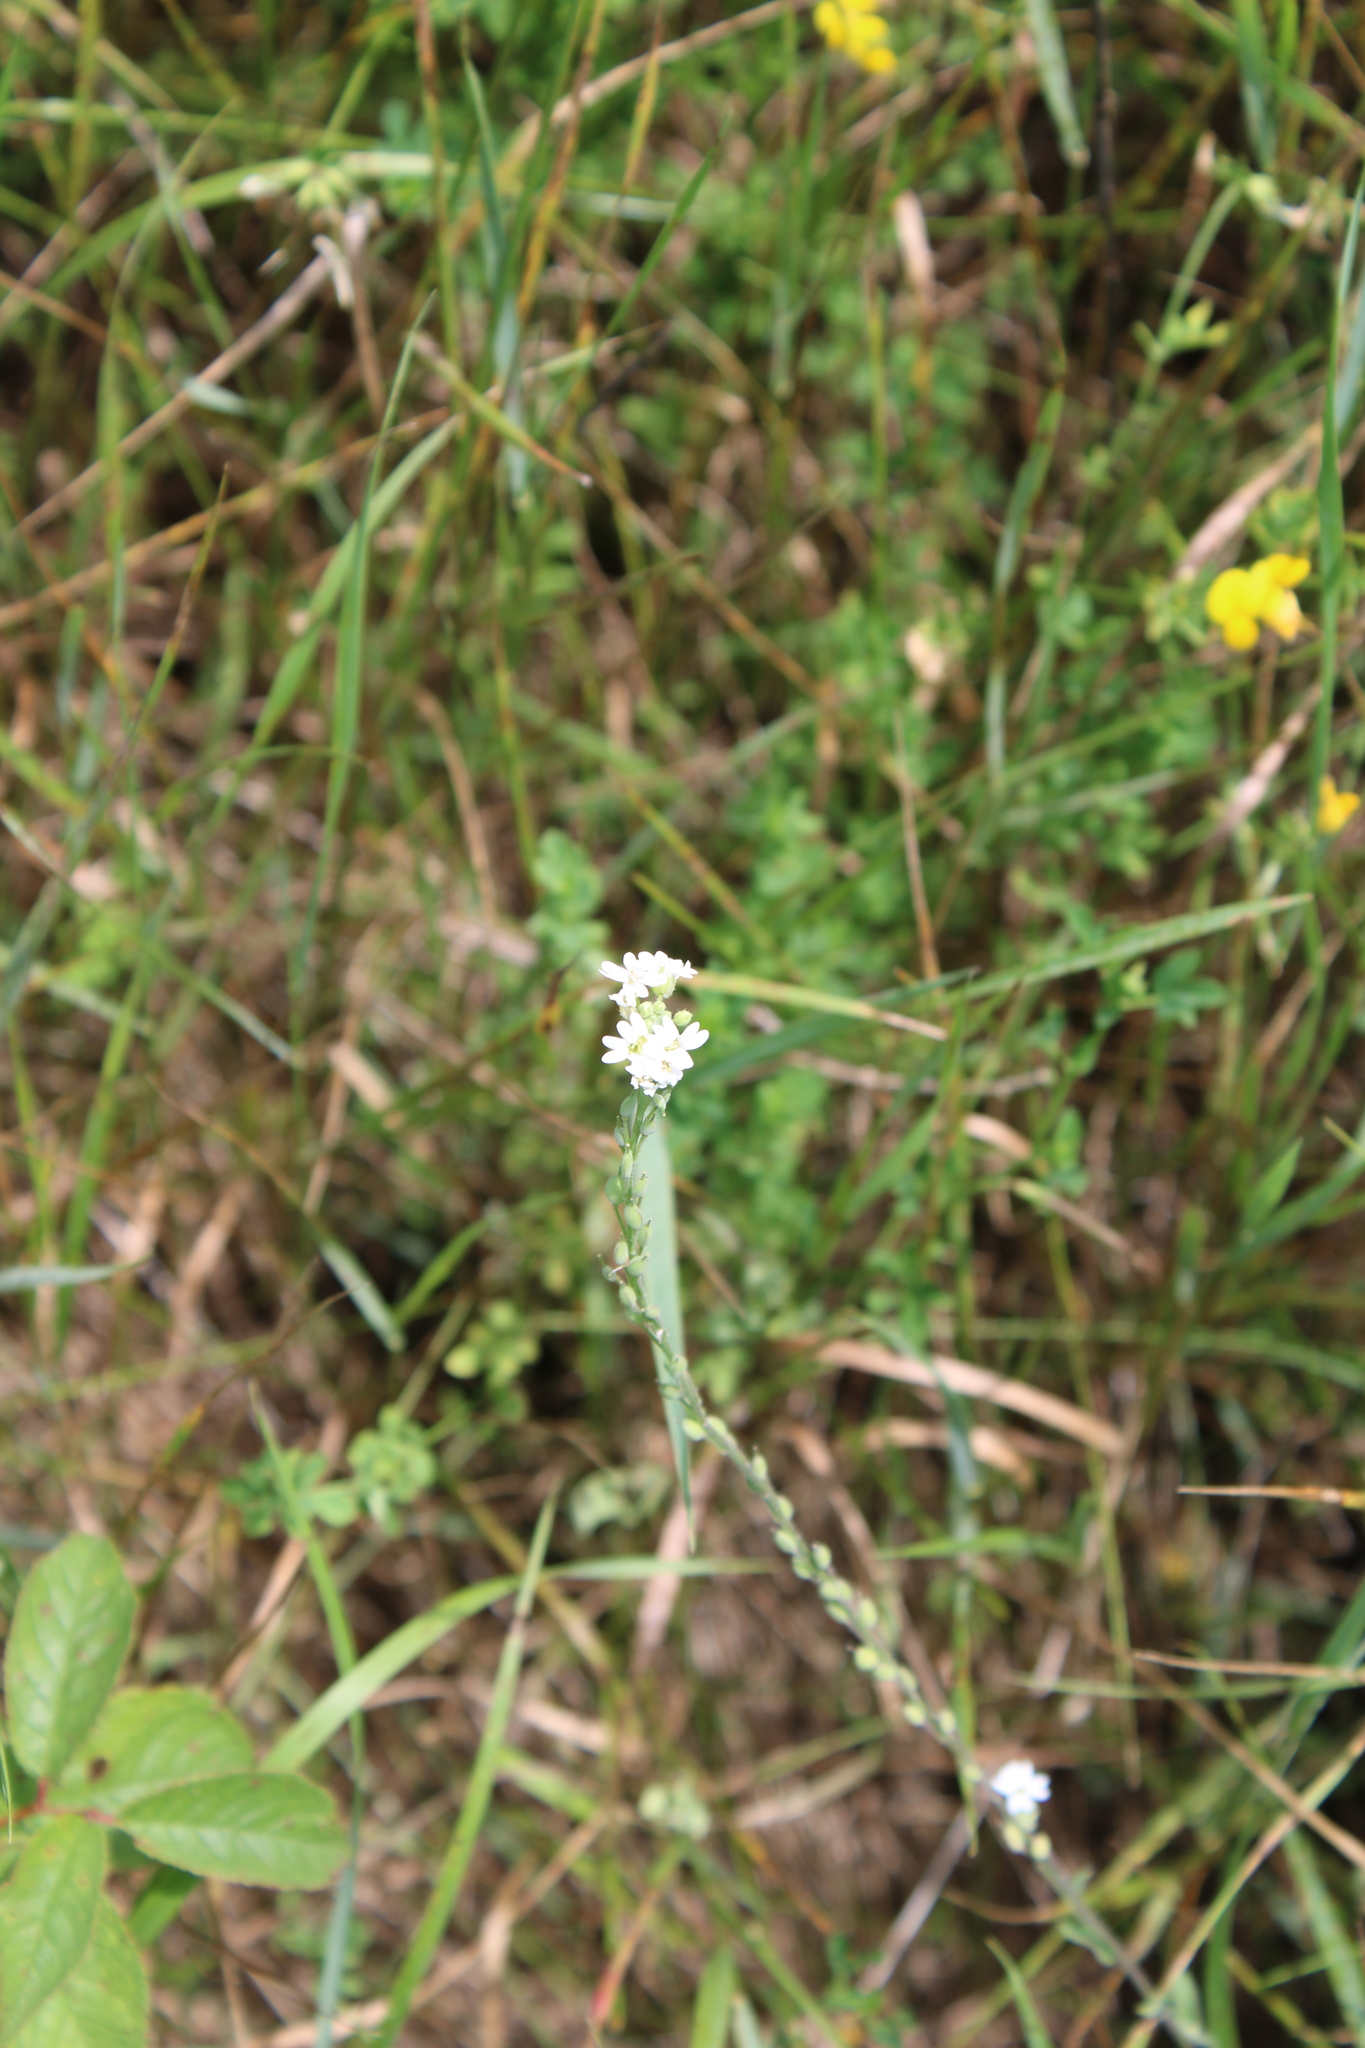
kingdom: Plantae
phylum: Tracheophyta
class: Magnoliopsida
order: Brassicales
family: Brassicaceae
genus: Berteroa
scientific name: Berteroa incana
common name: Hoary alison
